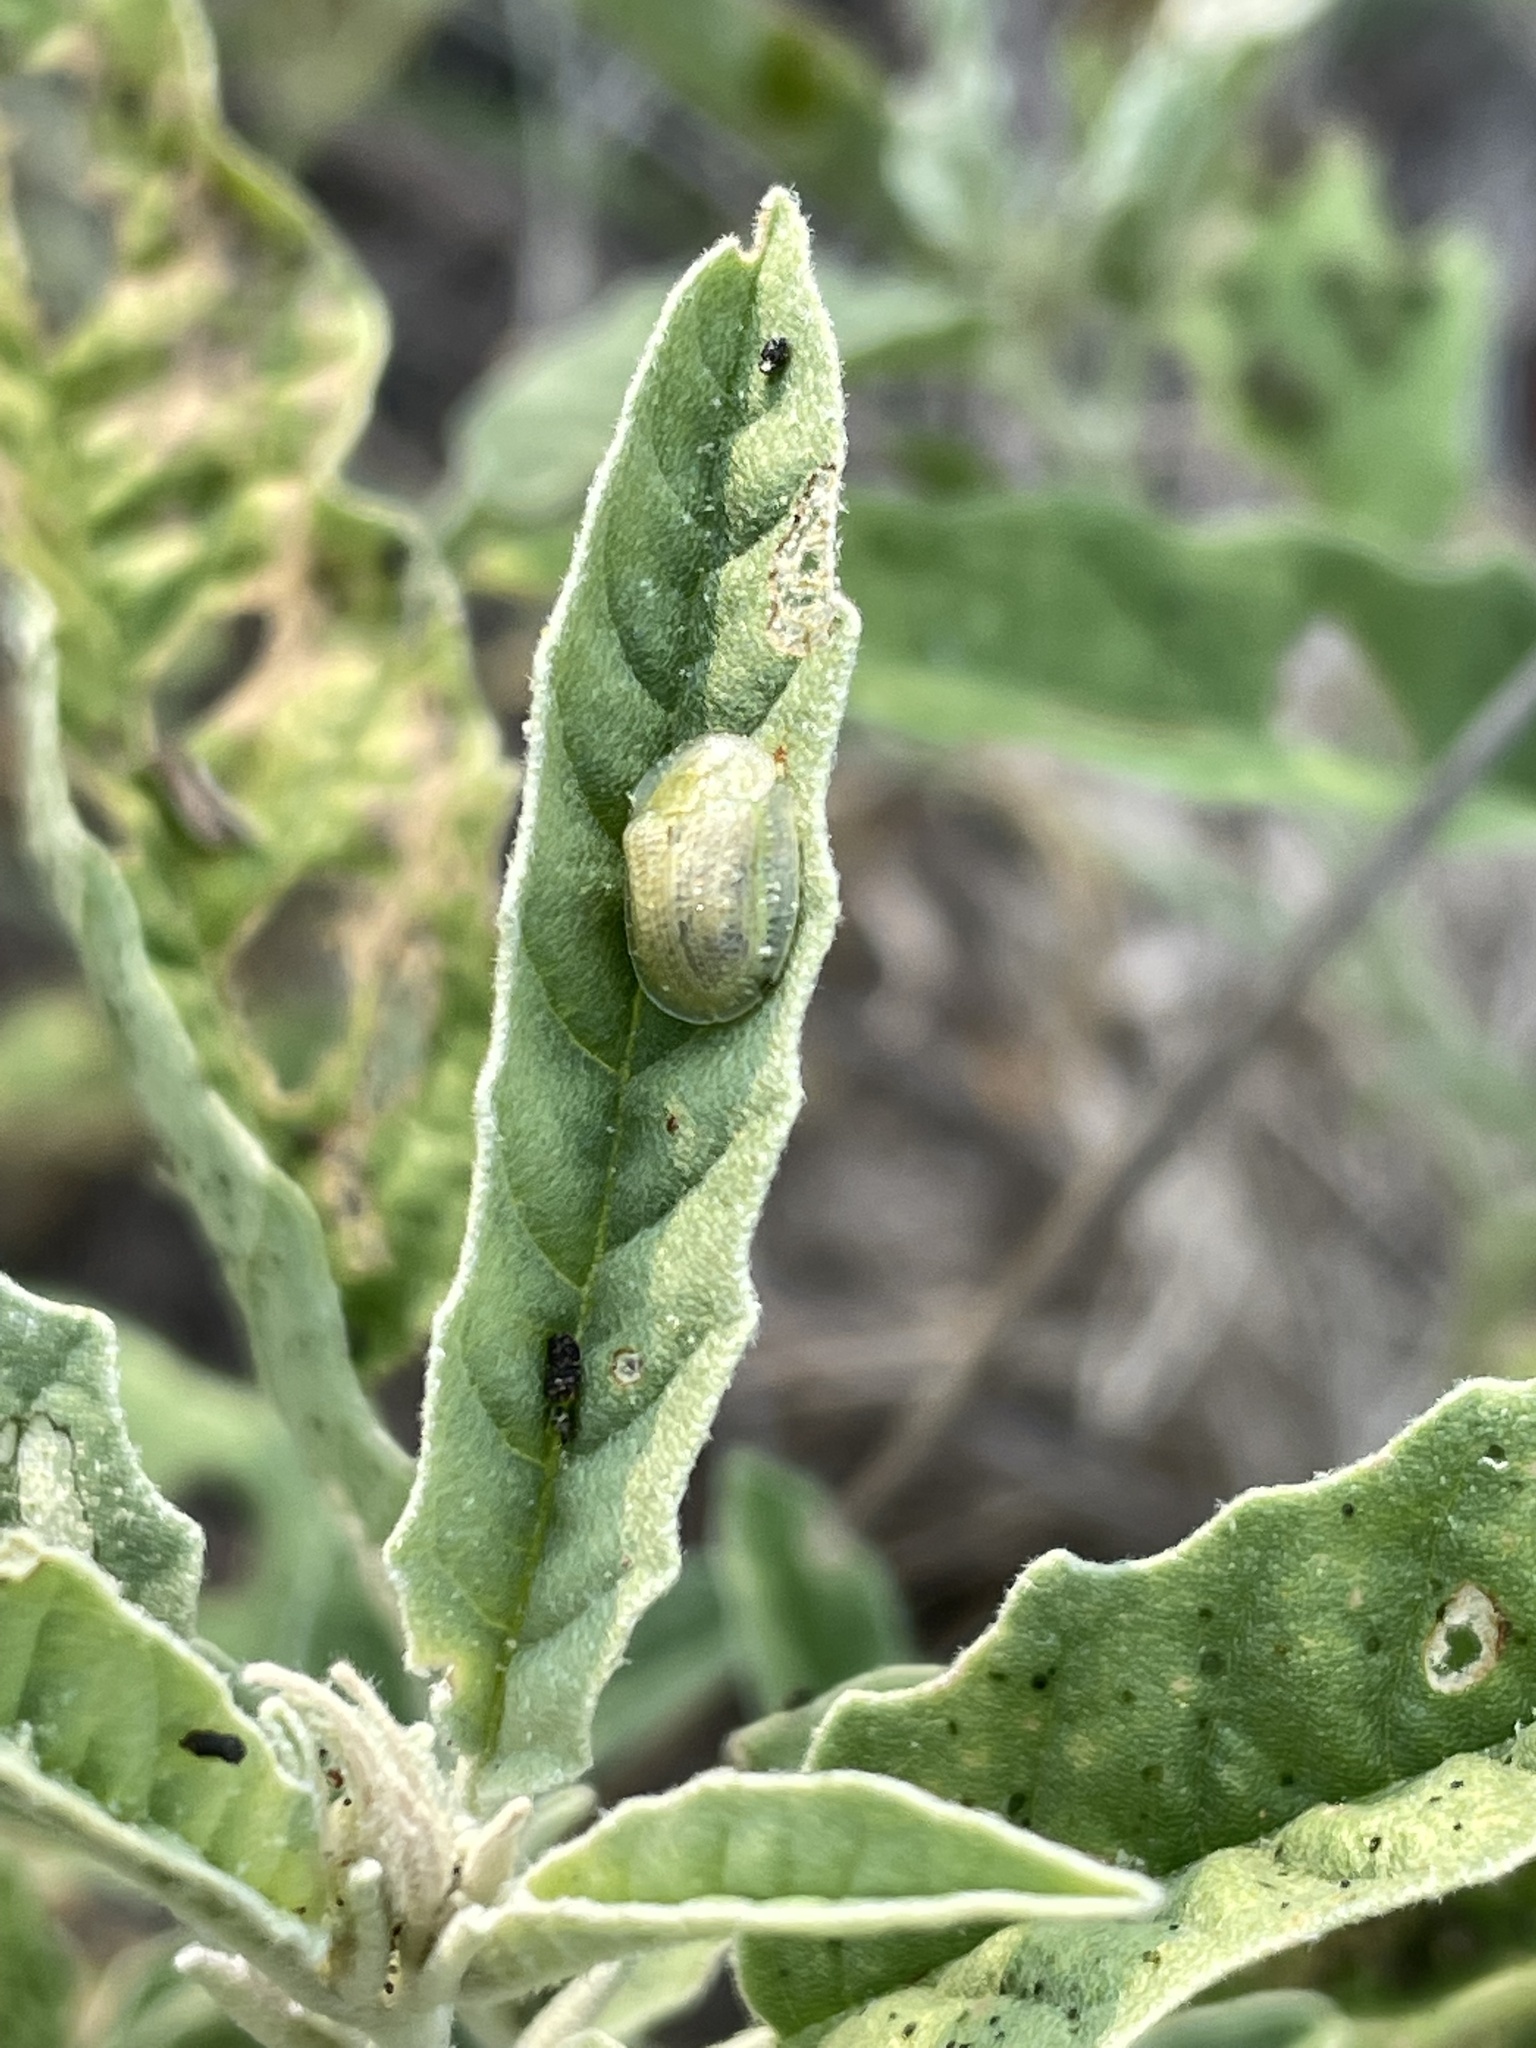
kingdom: Animalia
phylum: Arthropoda
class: Insecta
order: Coleoptera
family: Chrysomelidae
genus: Gratiana
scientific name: Gratiana pallidula
